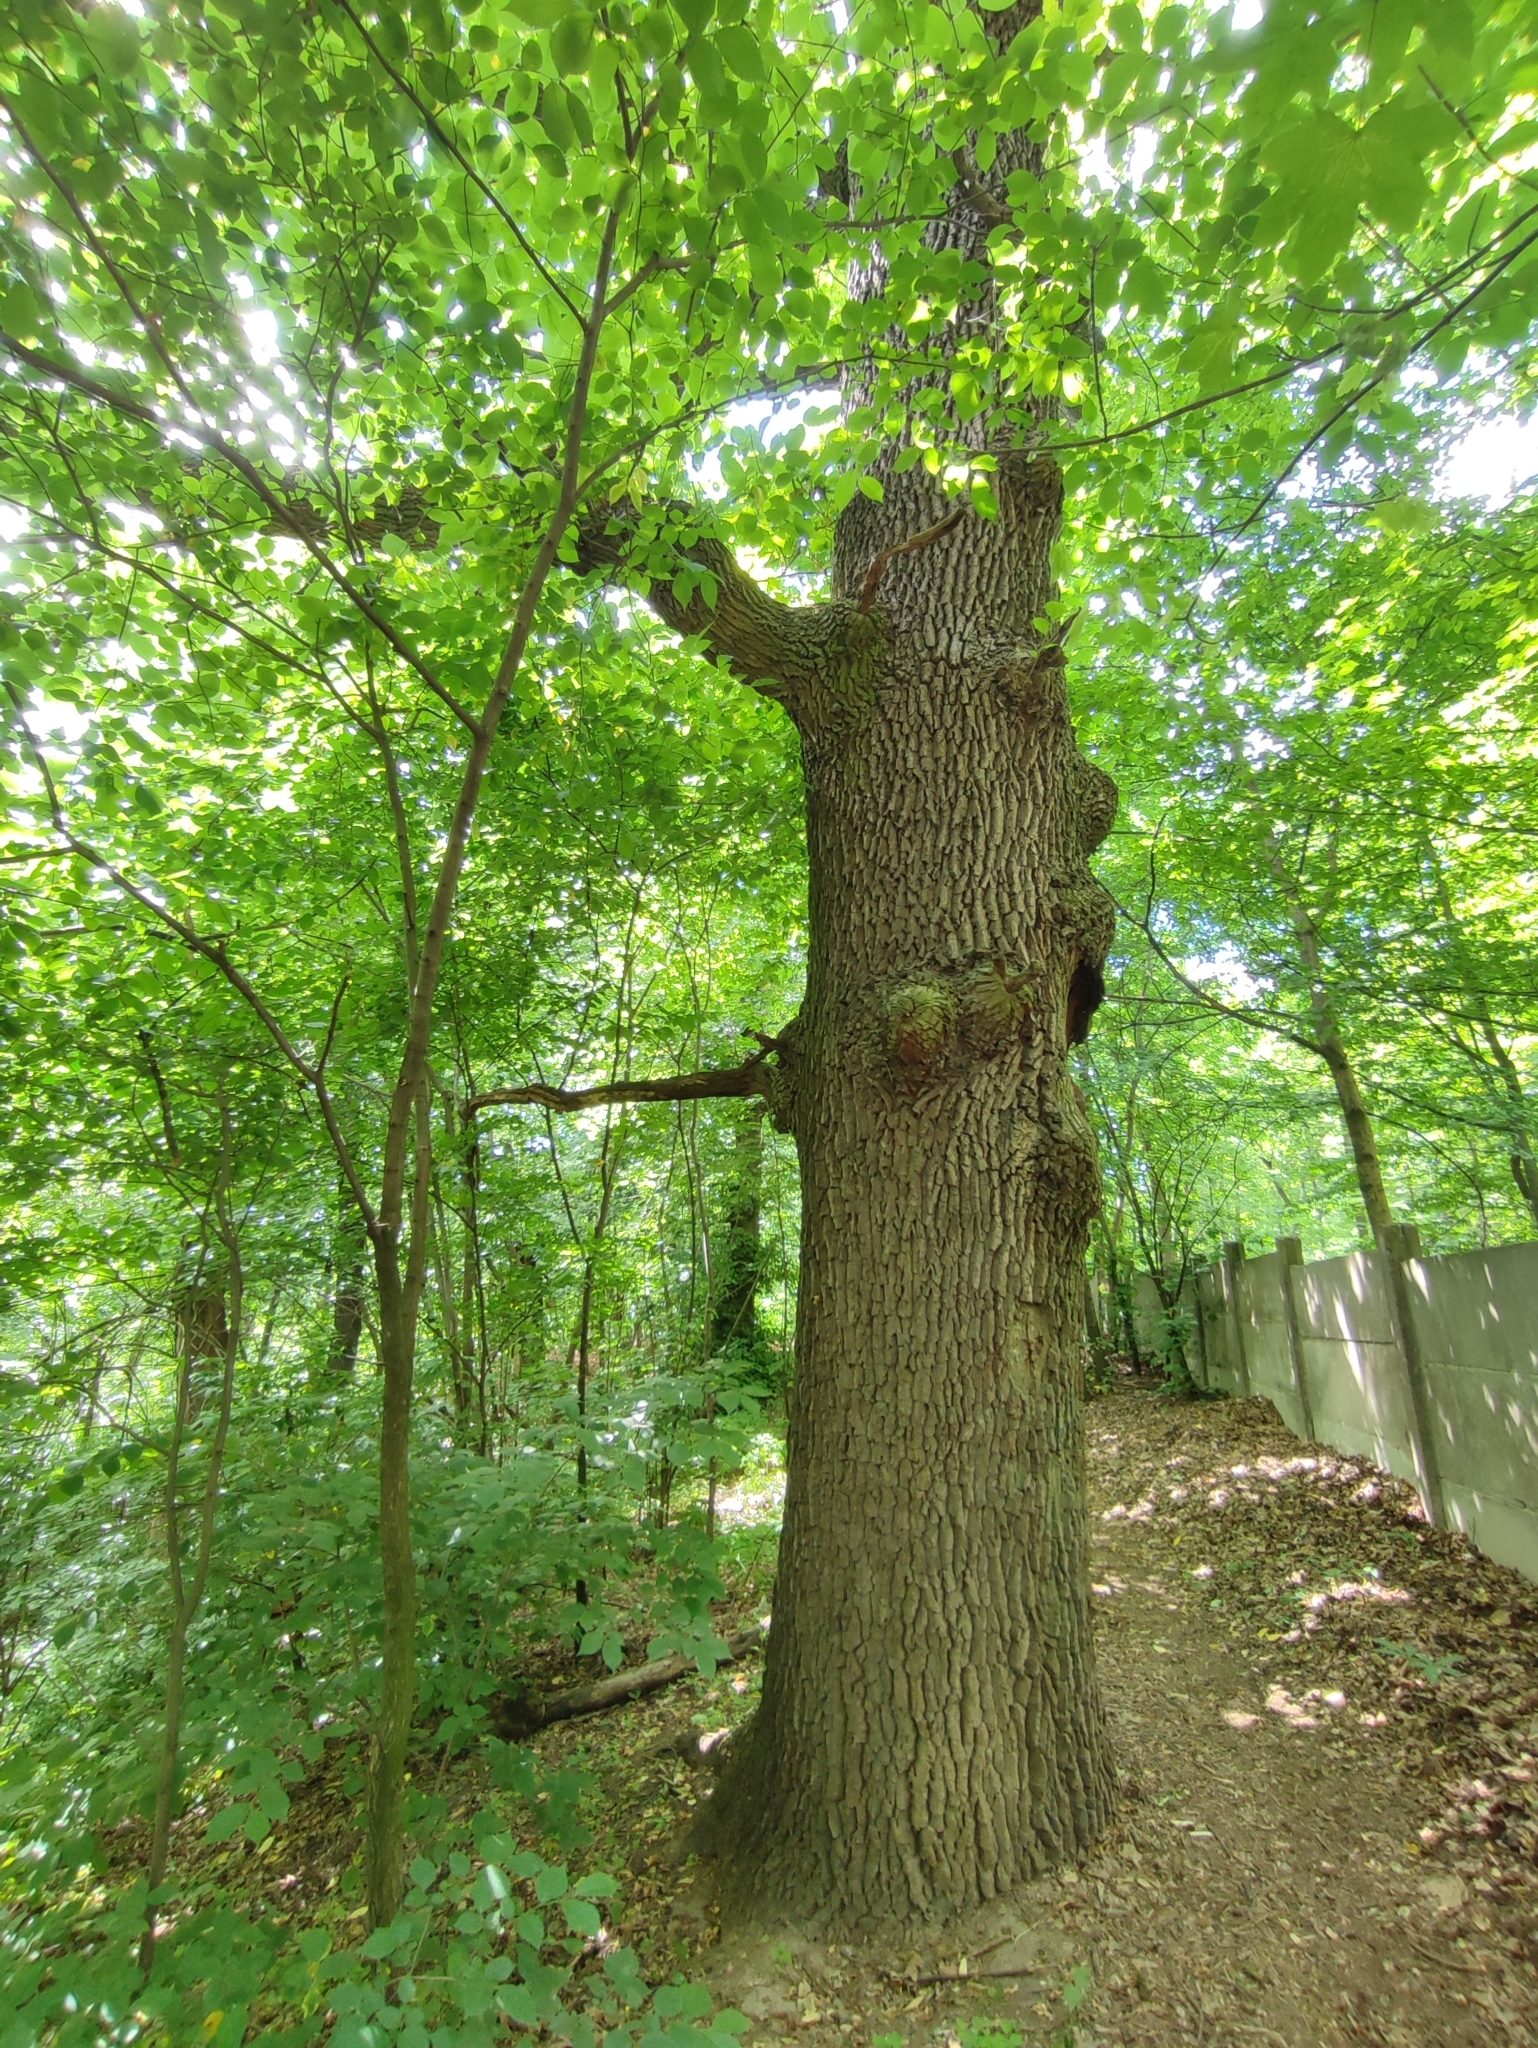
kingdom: Plantae
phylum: Tracheophyta
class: Magnoliopsida
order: Fagales
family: Fagaceae
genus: Quercus
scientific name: Quercus robur
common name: Pedunculate oak
